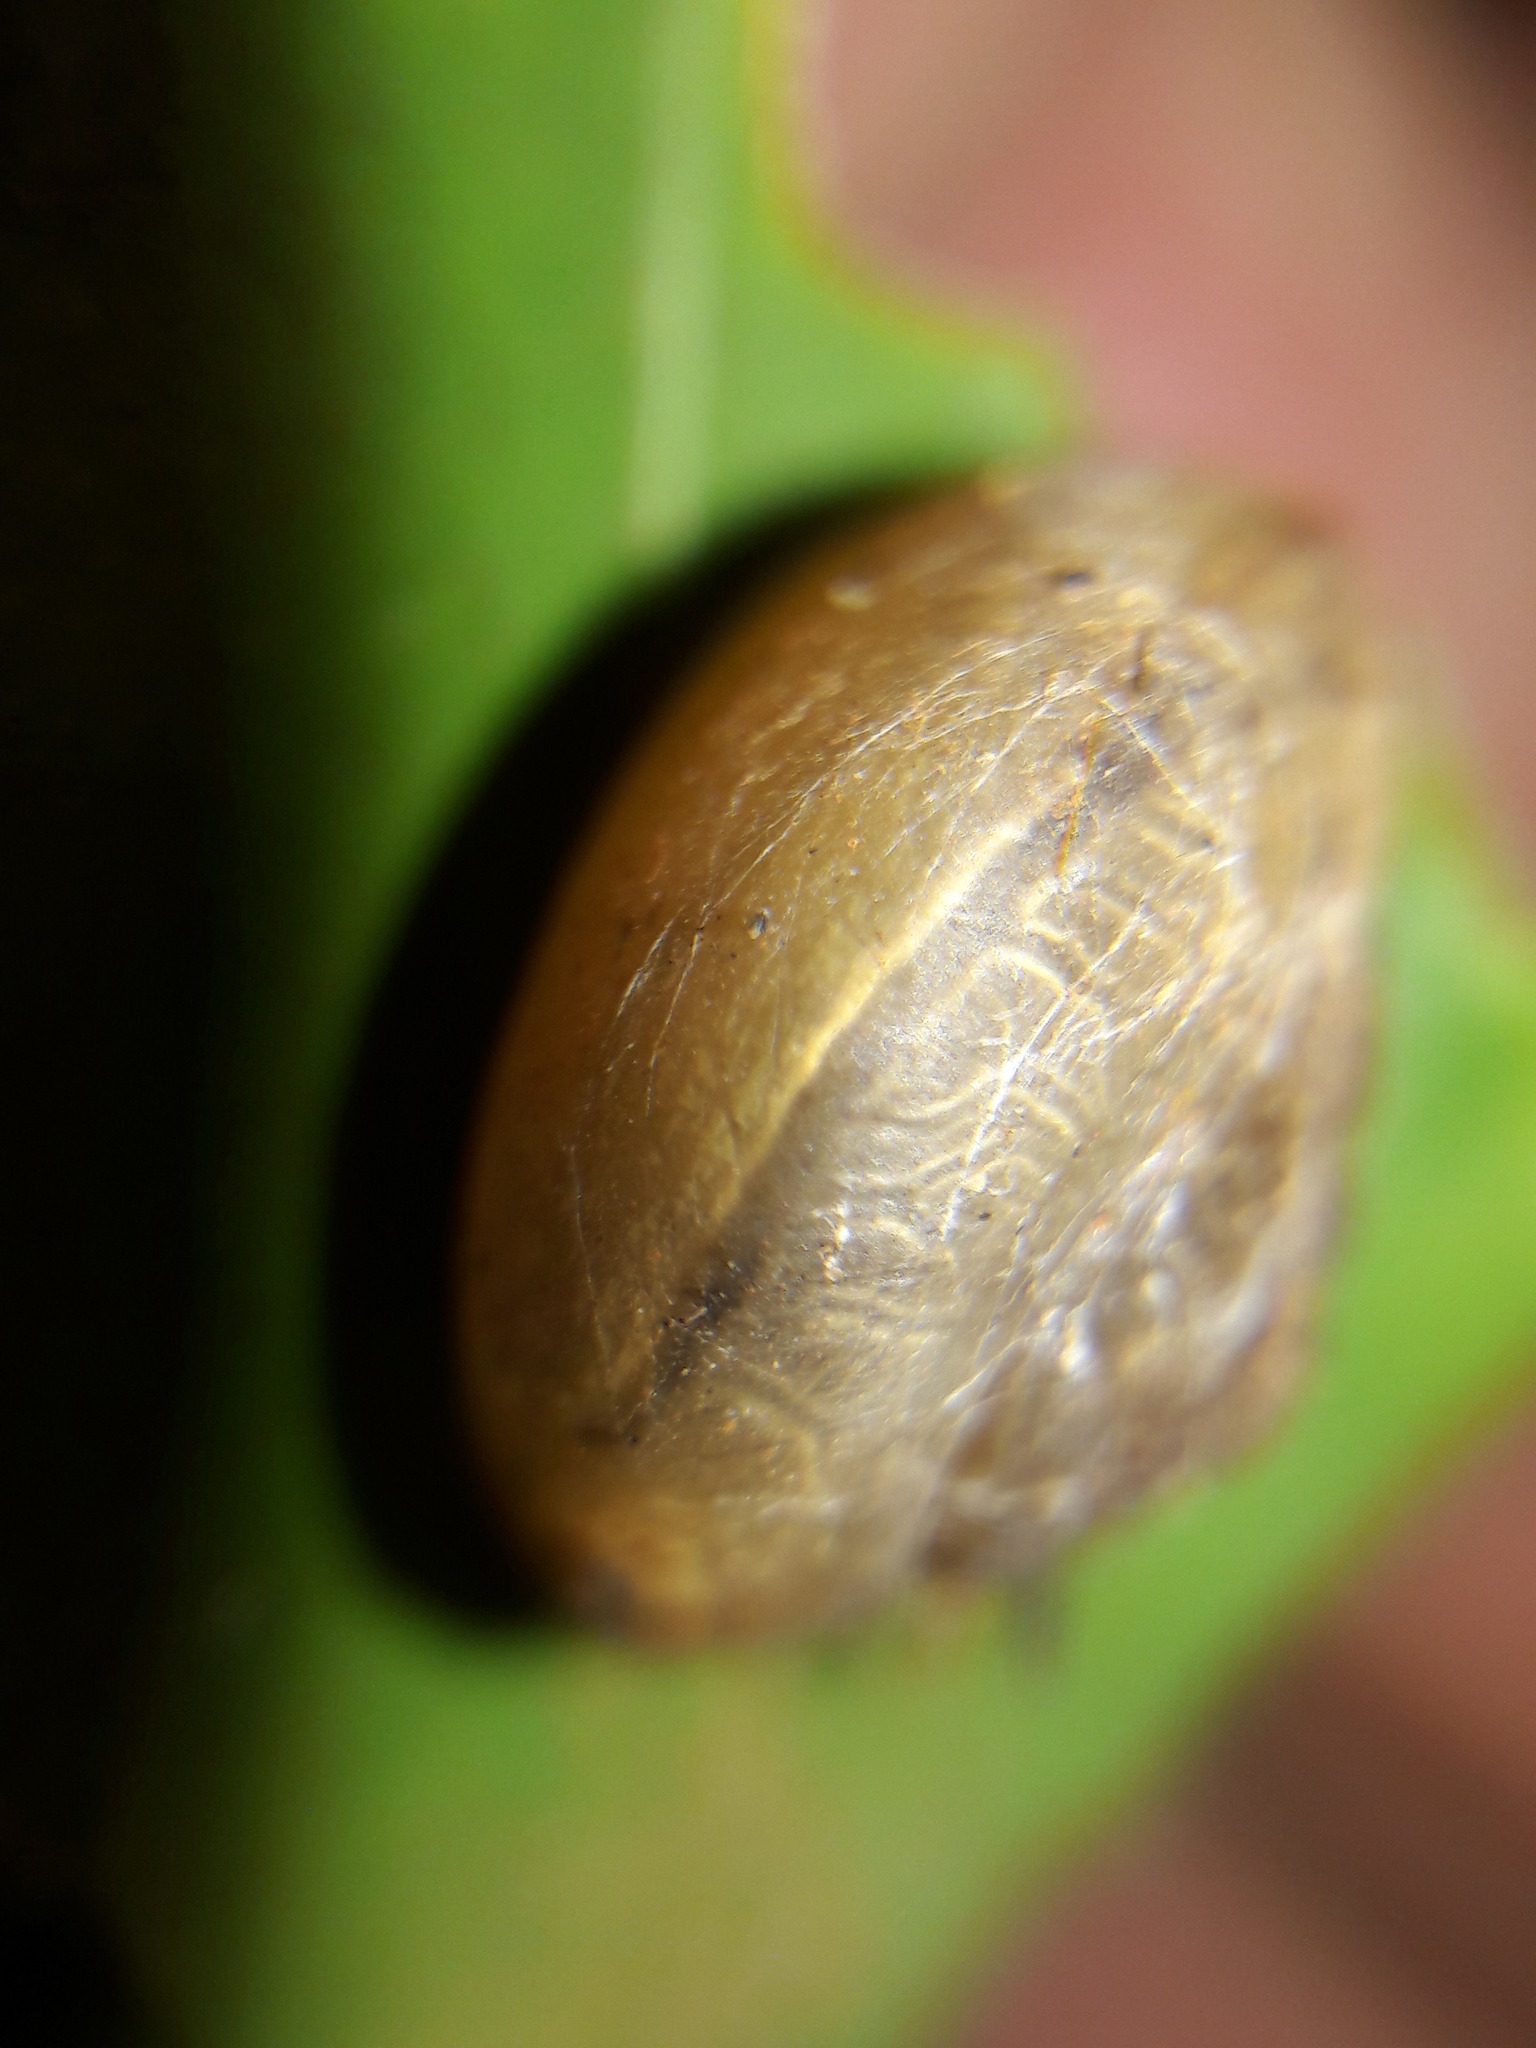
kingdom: Animalia
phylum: Mollusca
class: Gastropoda
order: Stylommatophora
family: Camaenidae
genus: Bradybaena
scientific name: Bradybaena similaris
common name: Asian trampsnail
